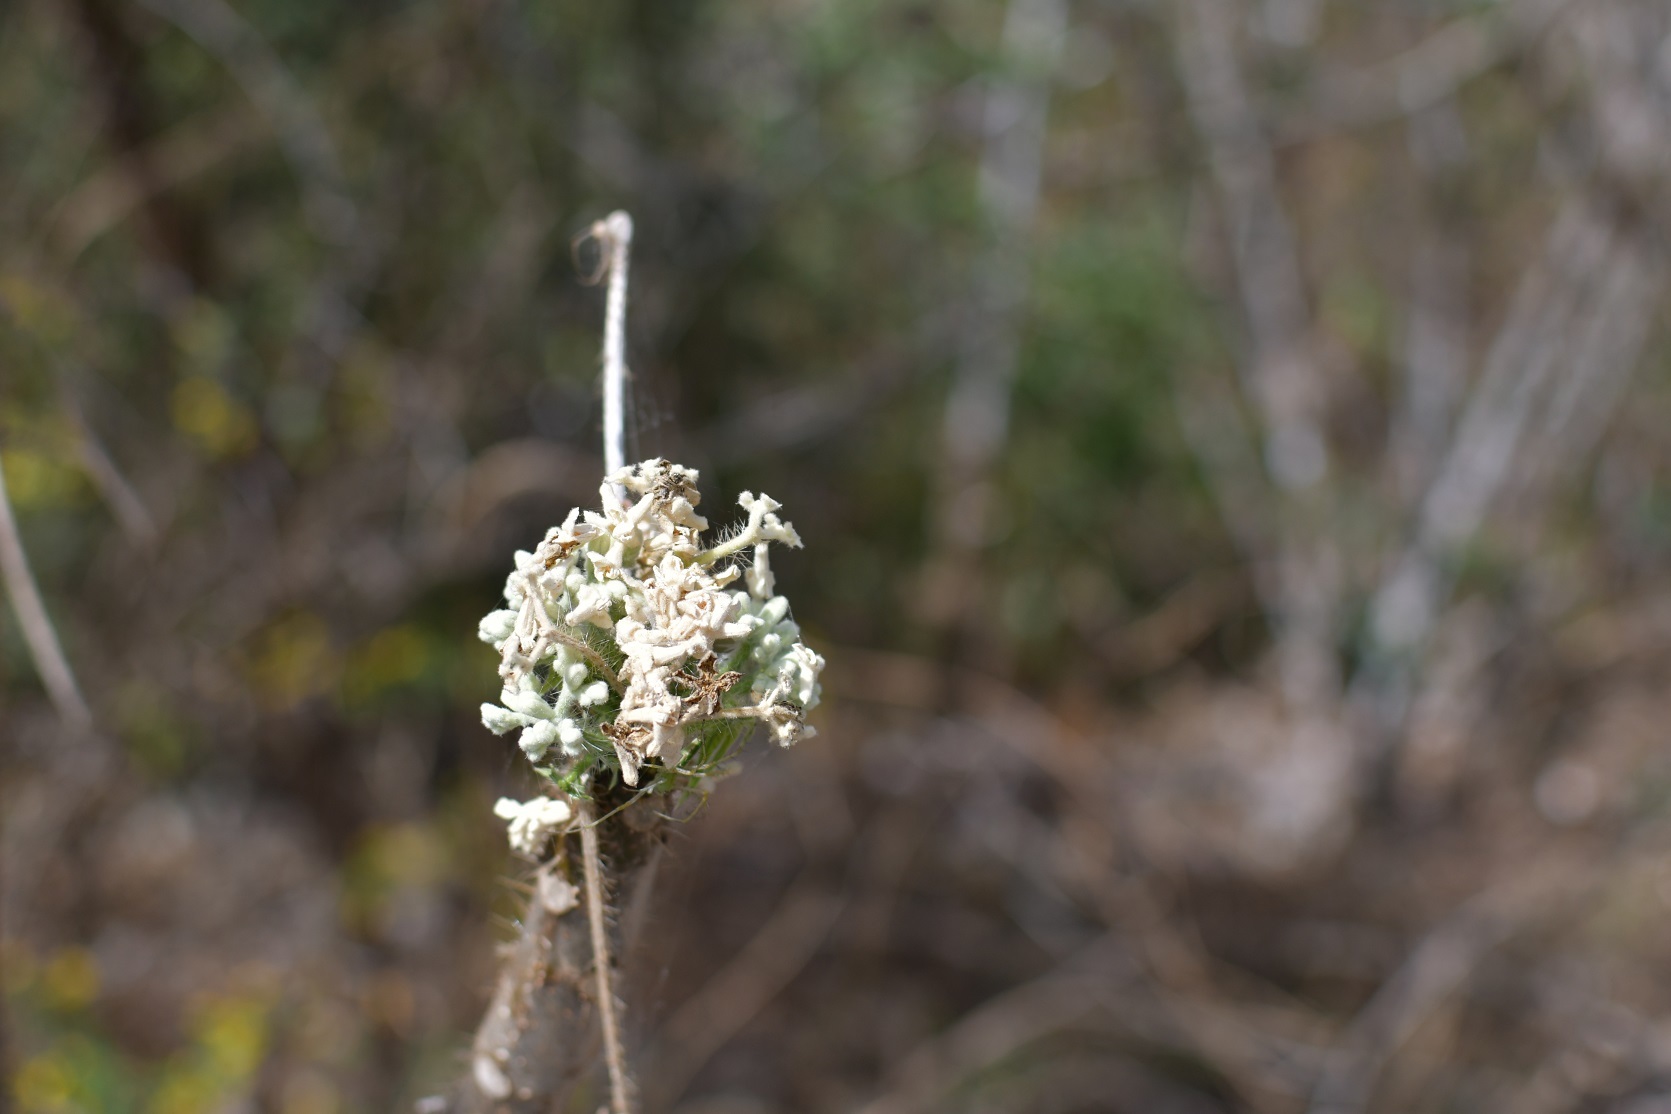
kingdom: Plantae
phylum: Tracheophyta
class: Magnoliopsida
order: Malpighiales
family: Euphorbiaceae
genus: Cnidoscolus
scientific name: Cnidoscolus multilobus
